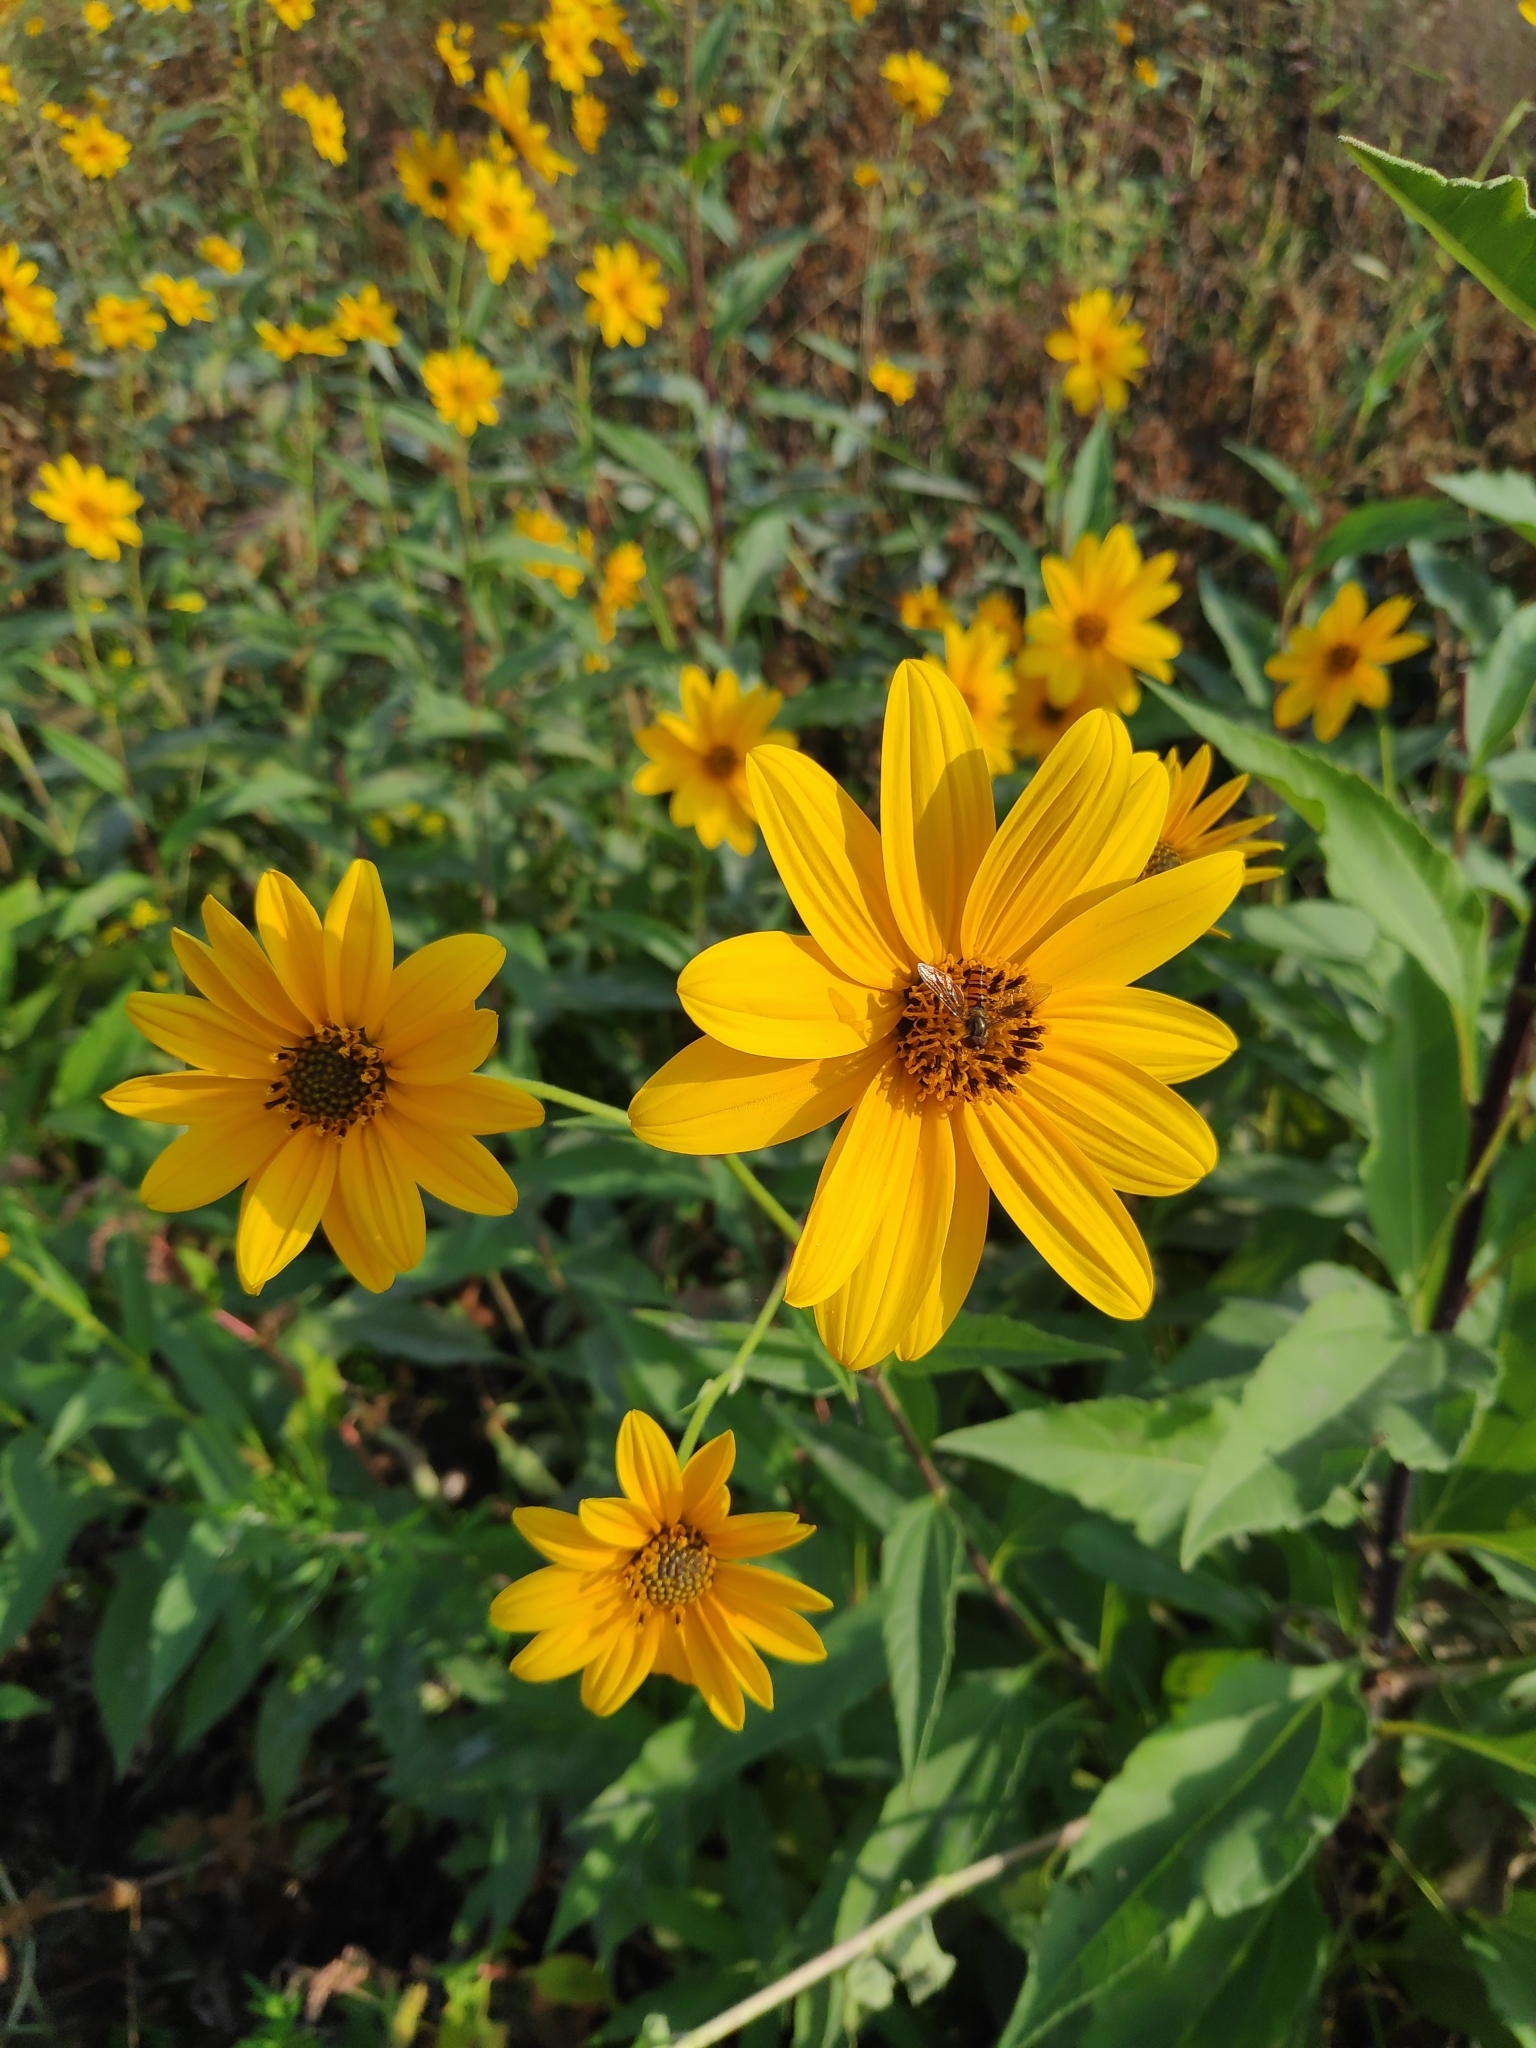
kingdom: Plantae
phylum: Tracheophyta
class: Magnoliopsida
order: Asterales
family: Asteraceae
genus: Helianthus
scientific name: Helianthus laetiflorus
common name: Perennial sunflower
